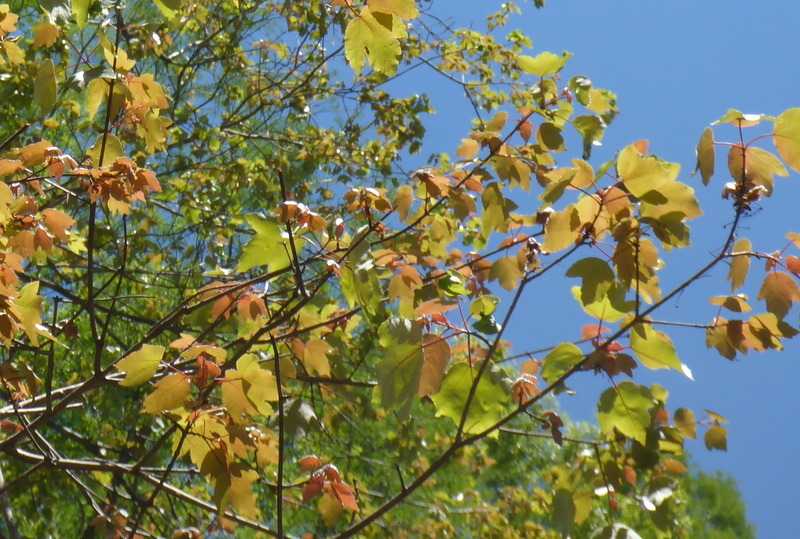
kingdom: Plantae
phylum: Tracheophyta
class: Magnoliopsida
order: Sapindales
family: Sapindaceae
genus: Acer
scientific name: Acer rubrum
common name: Red maple
